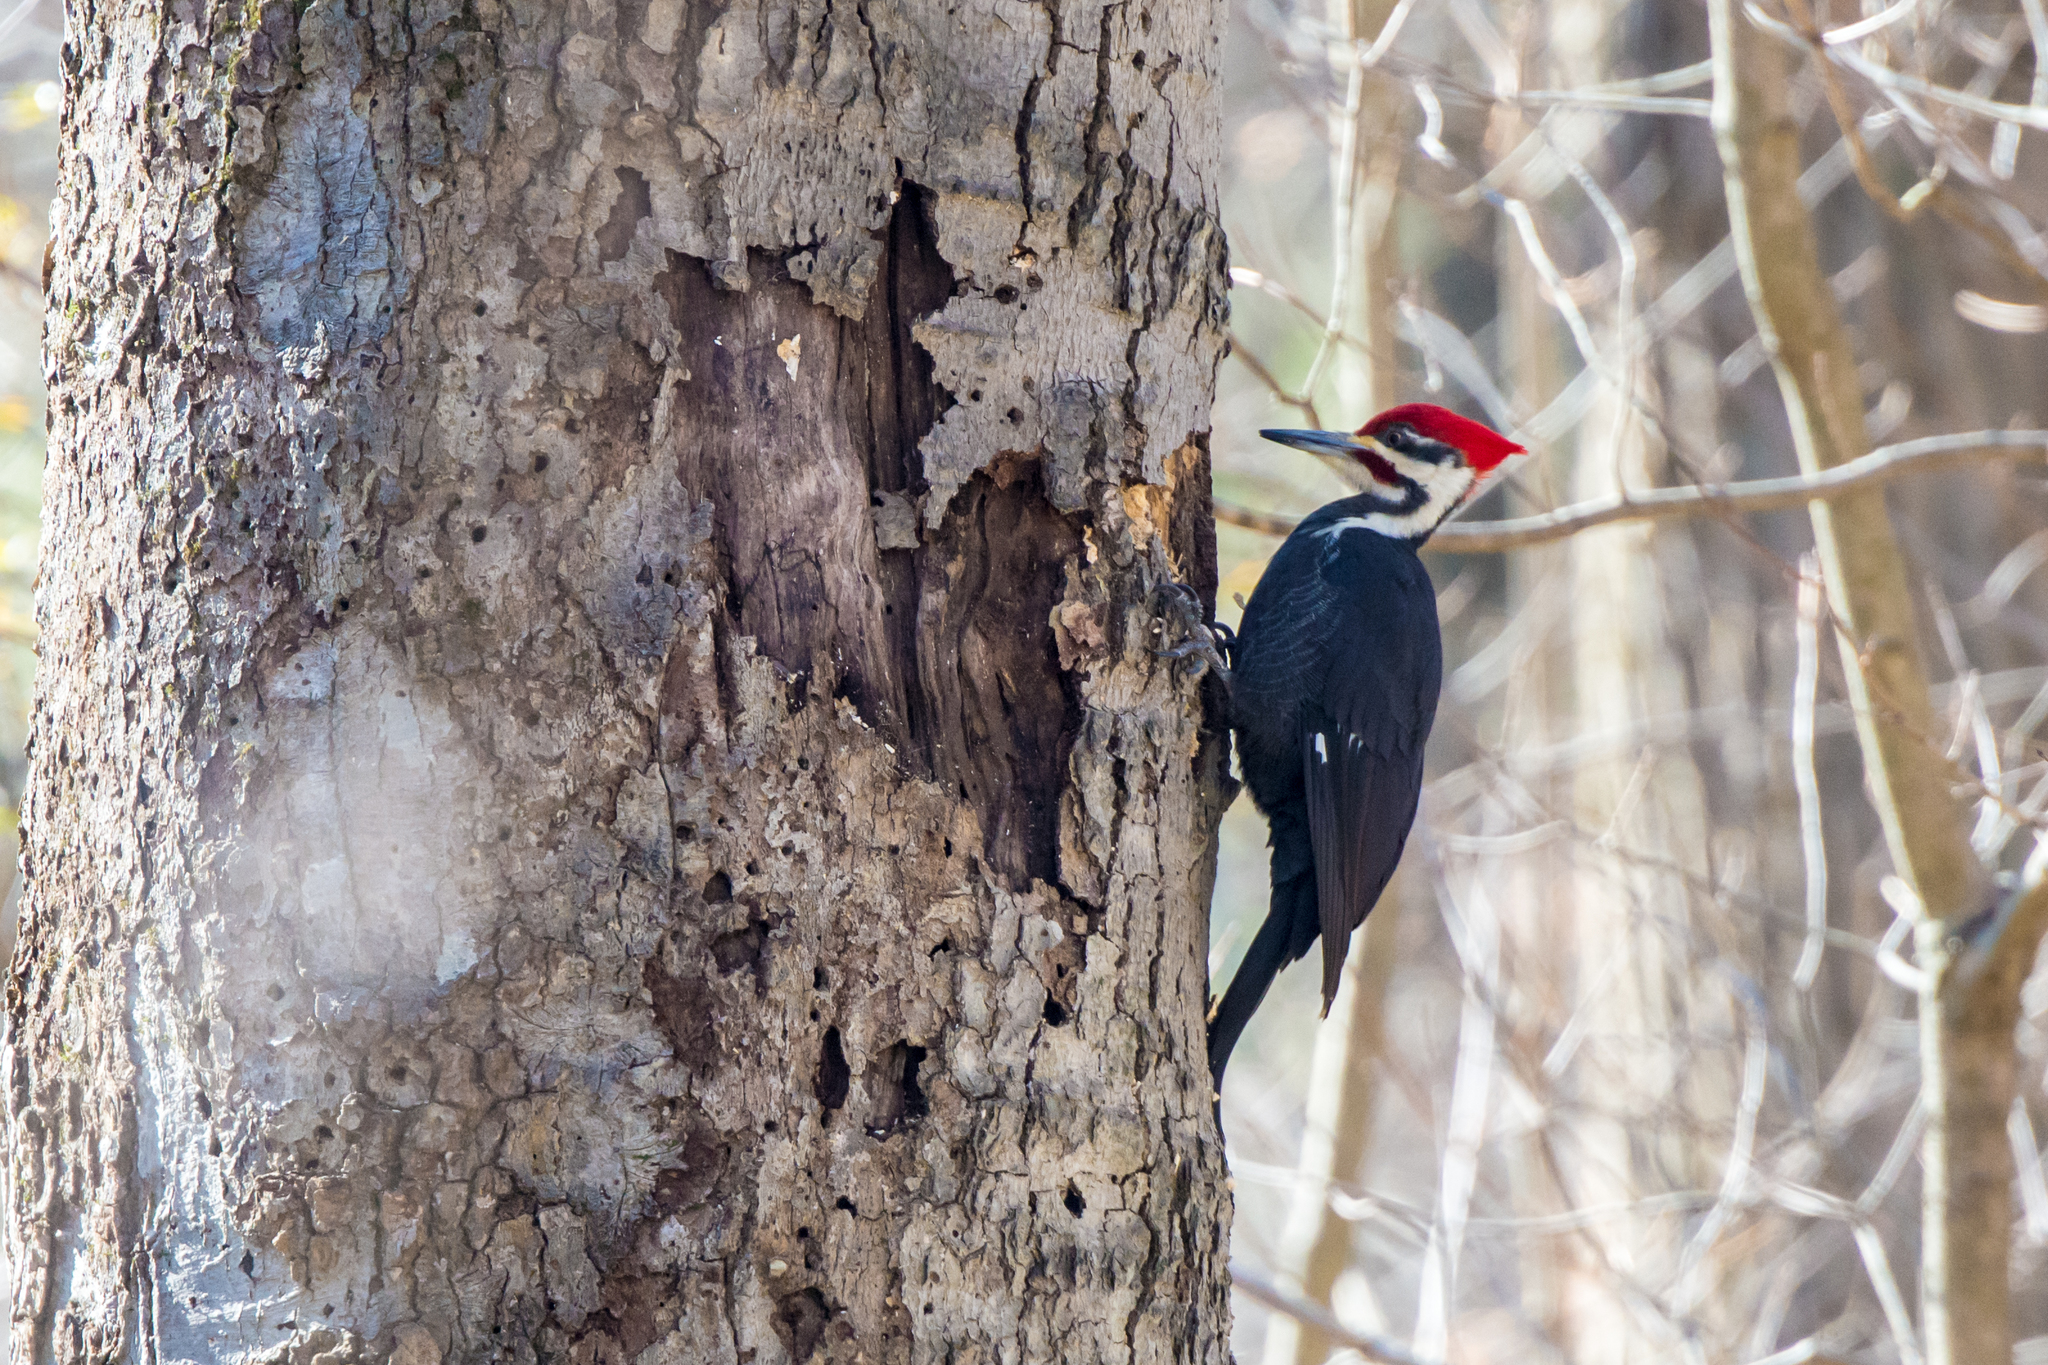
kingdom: Animalia
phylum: Chordata
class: Aves
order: Piciformes
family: Picidae
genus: Dryocopus
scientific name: Dryocopus pileatus
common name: Pileated woodpecker
